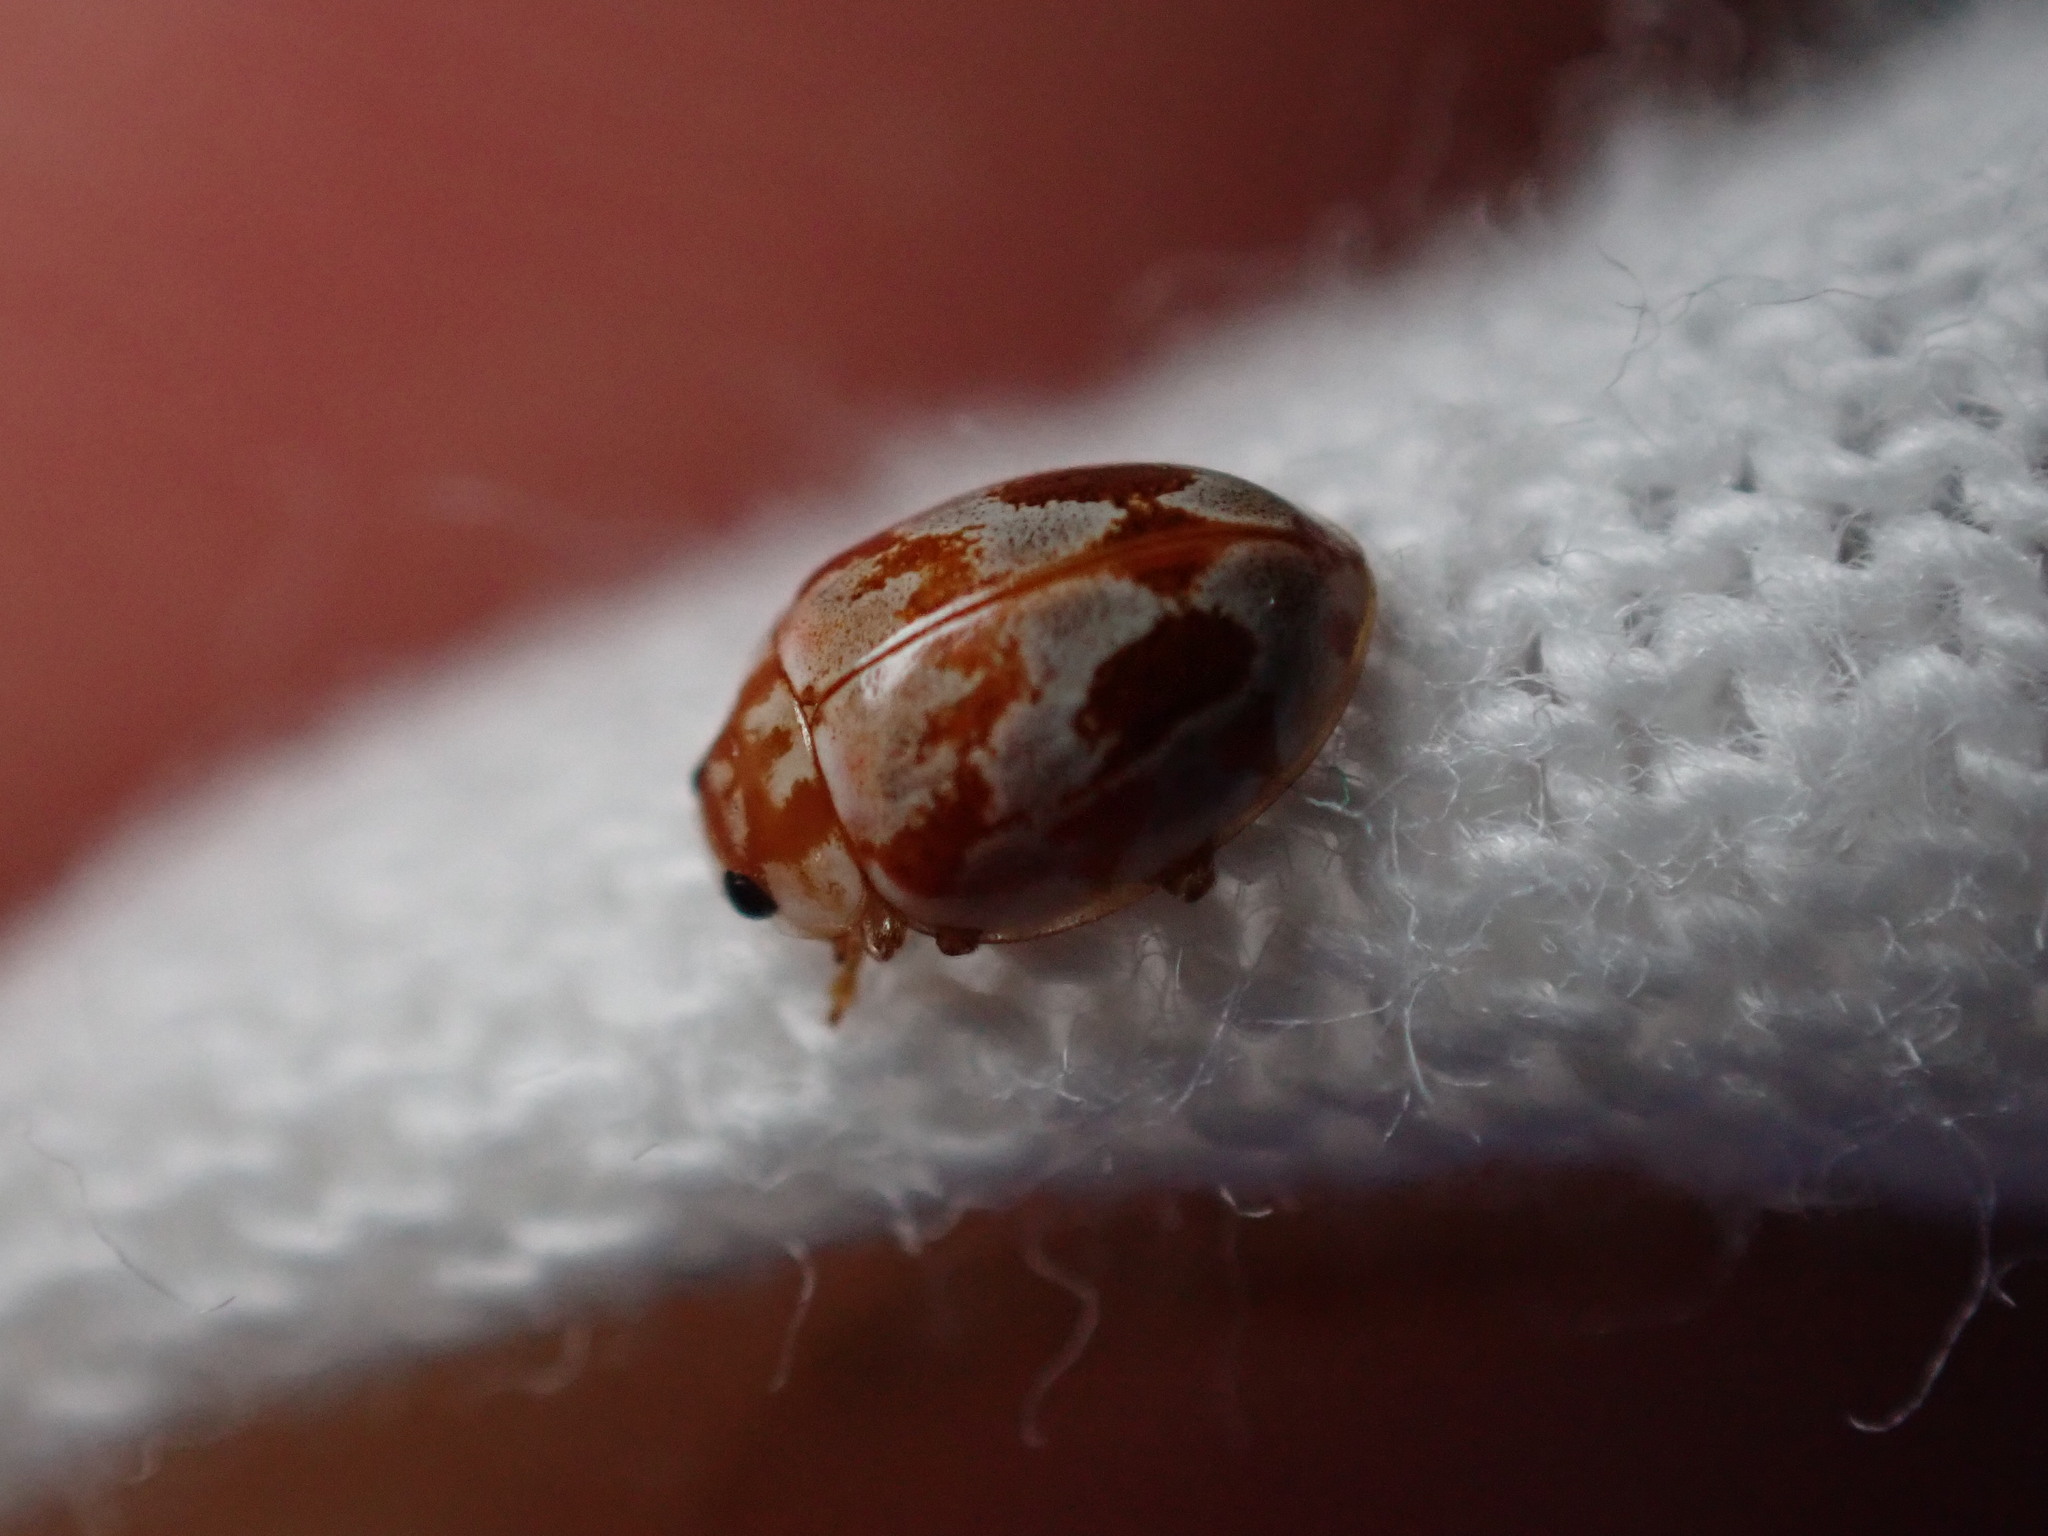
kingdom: Animalia
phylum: Arthropoda
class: Insecta
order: Coleoptera
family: Coccinellidae
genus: Myrrha
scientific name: Myrrha octodecimguttata
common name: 18-spot ladybird
